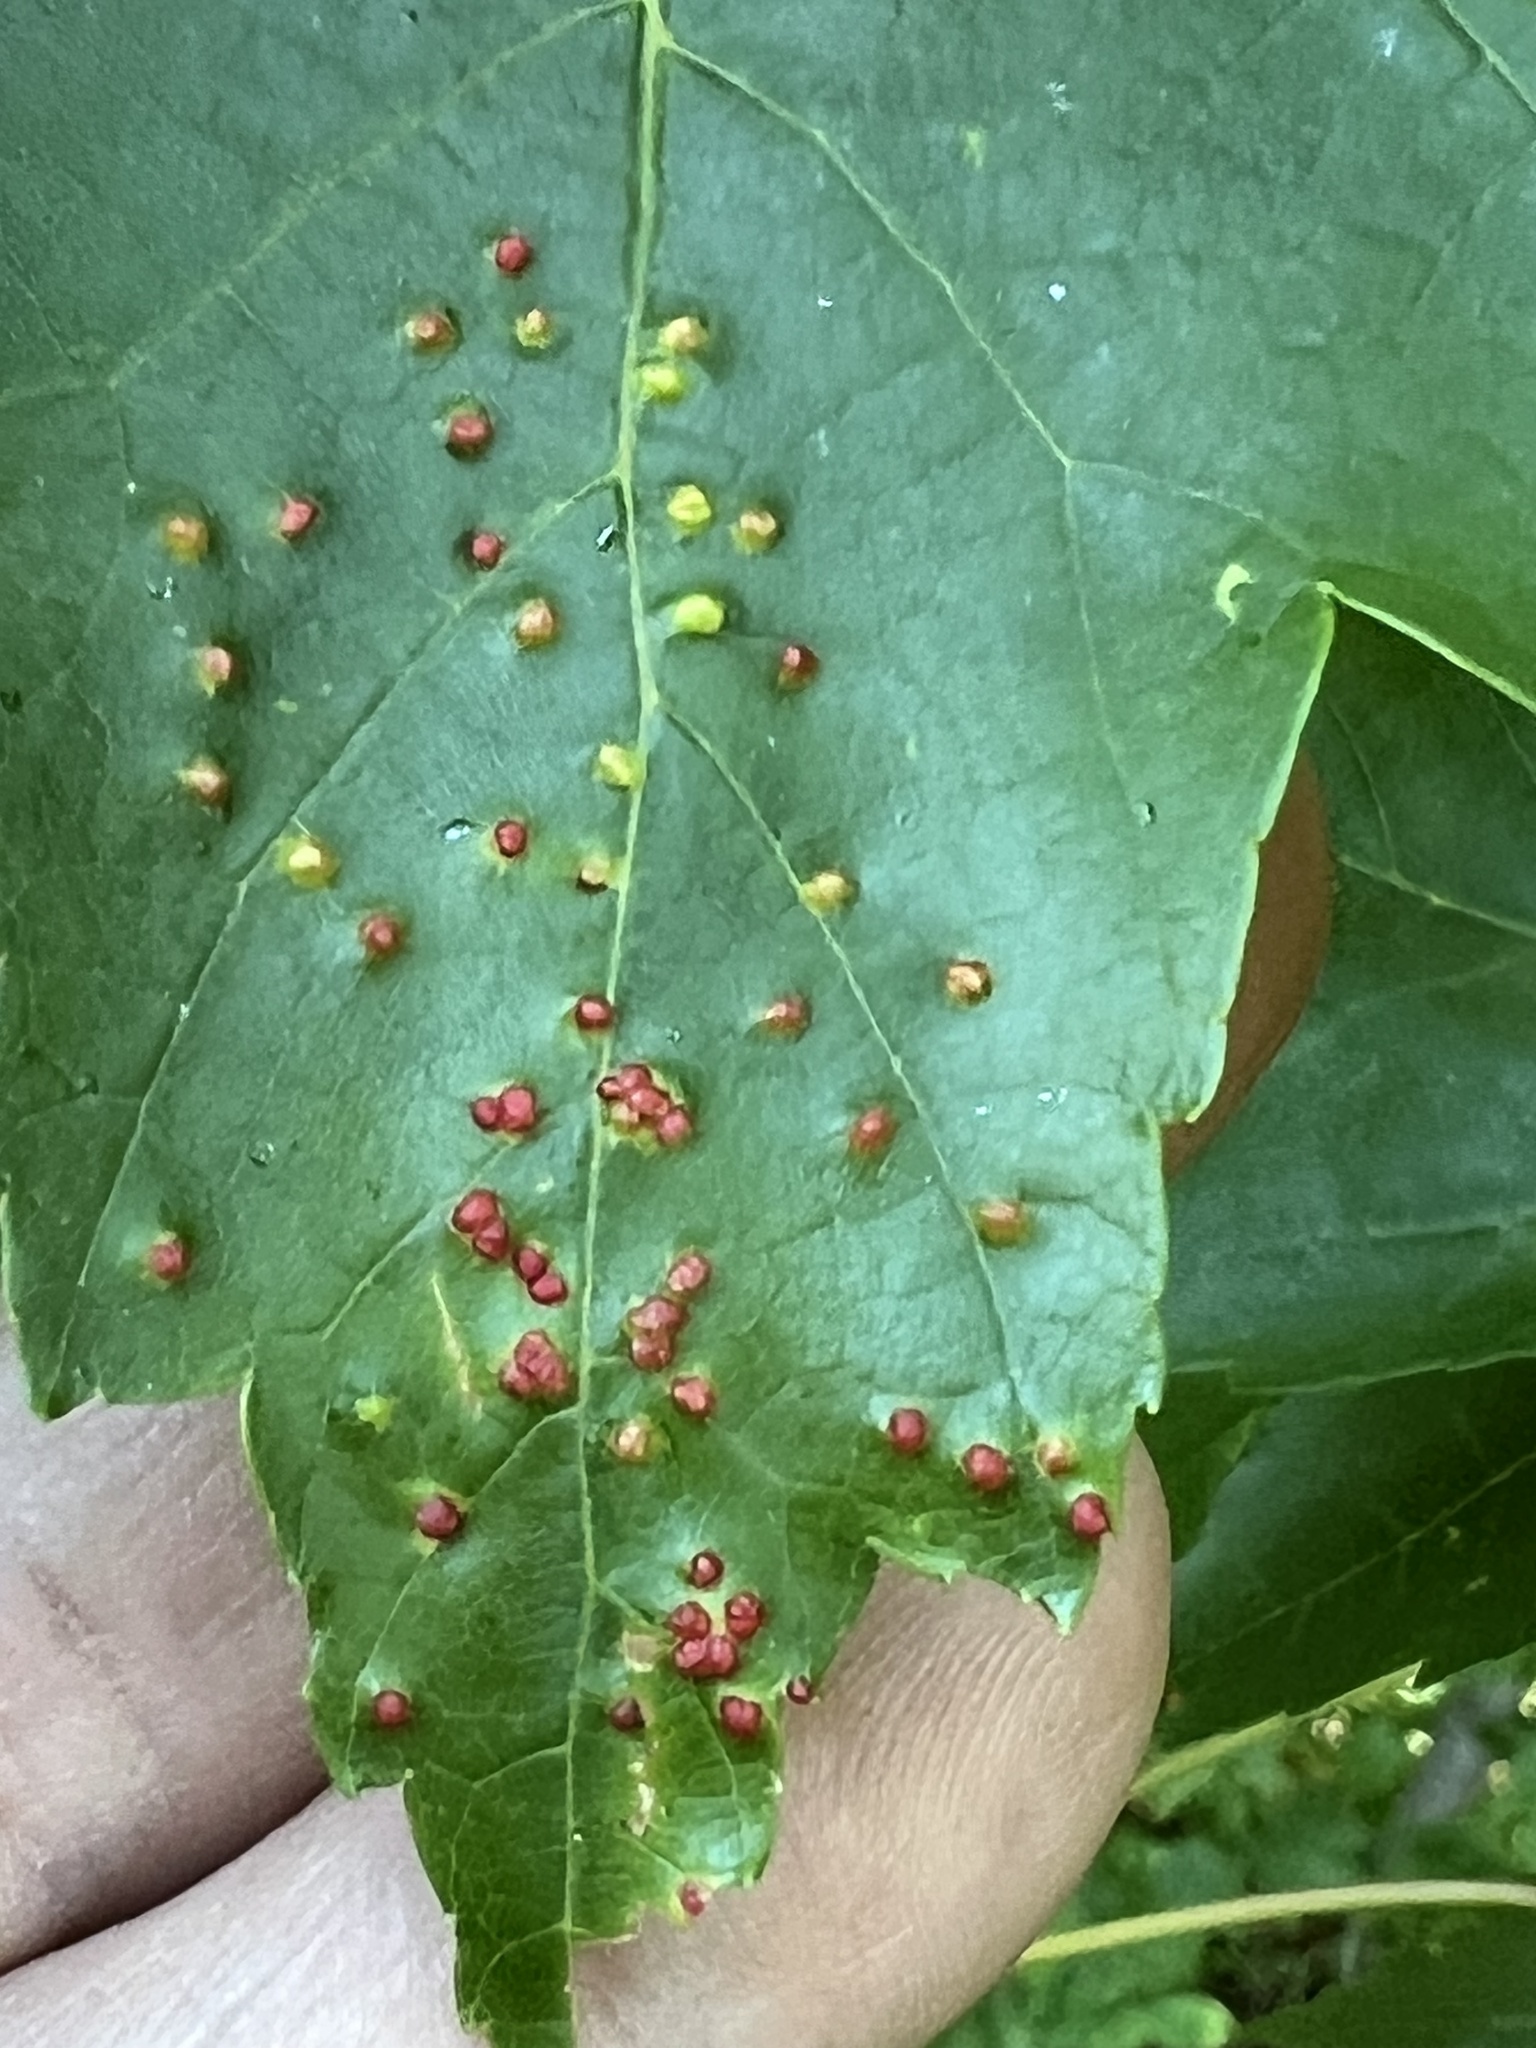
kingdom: Animalia
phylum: Arthropoda
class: Arachnida
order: Trombidiformes
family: Eriophyidae
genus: Vasates
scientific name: Vasates quadripedes
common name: Maple bladder gall mite
